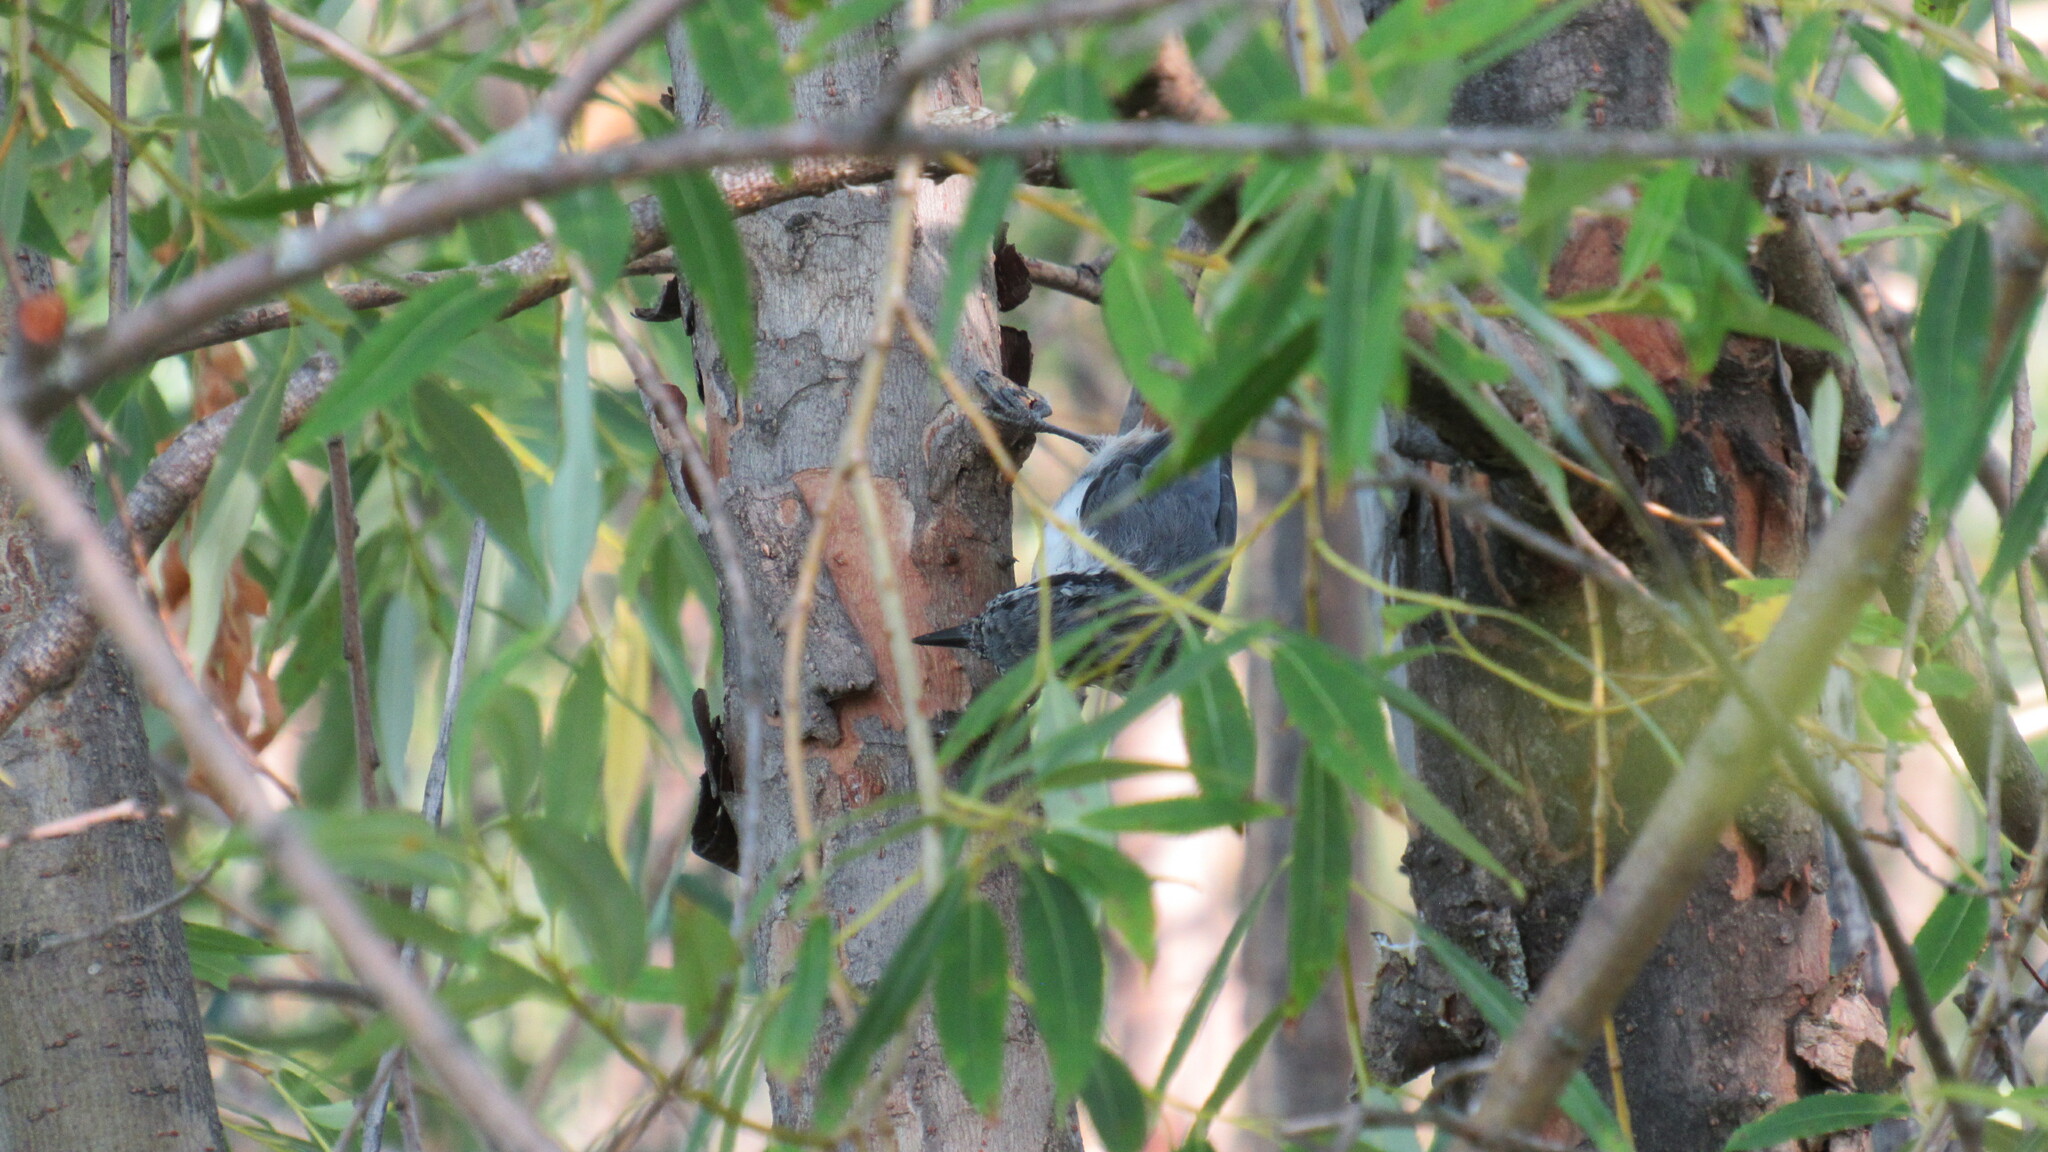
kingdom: Animalia
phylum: Chordata
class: Aves
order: Passeriformes
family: Sittidae
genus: Sitta
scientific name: Sitta europaea
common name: Eurasian nuthatch
